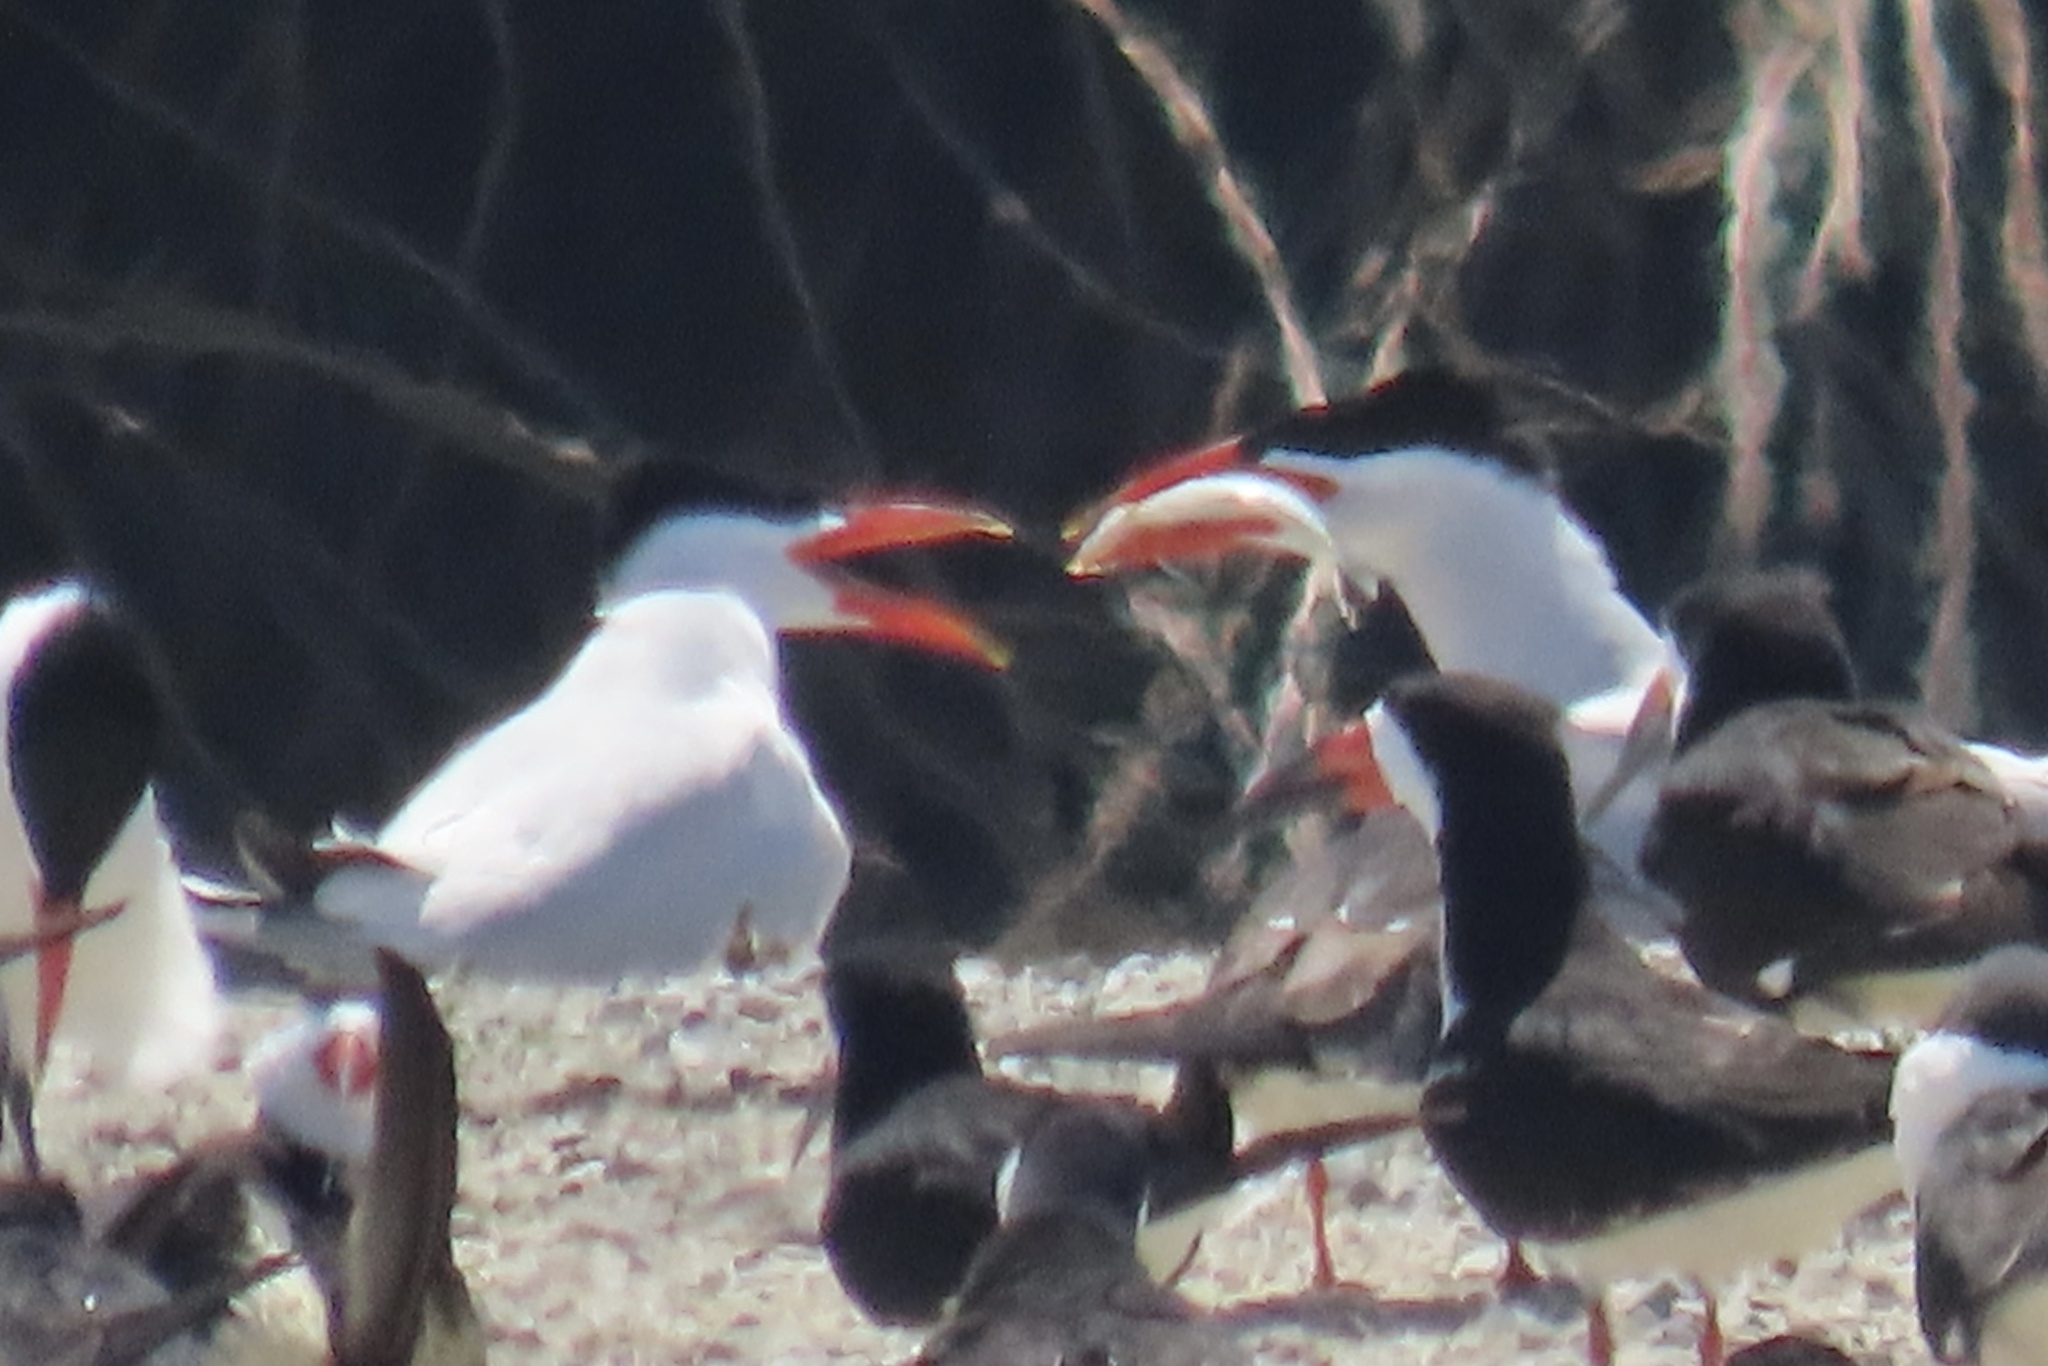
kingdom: Animalia
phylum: Chordata
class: Aves
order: Charadriiformes
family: Laridae
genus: Hydroprogne
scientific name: Hydroprogne caspia
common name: Caspian tern
